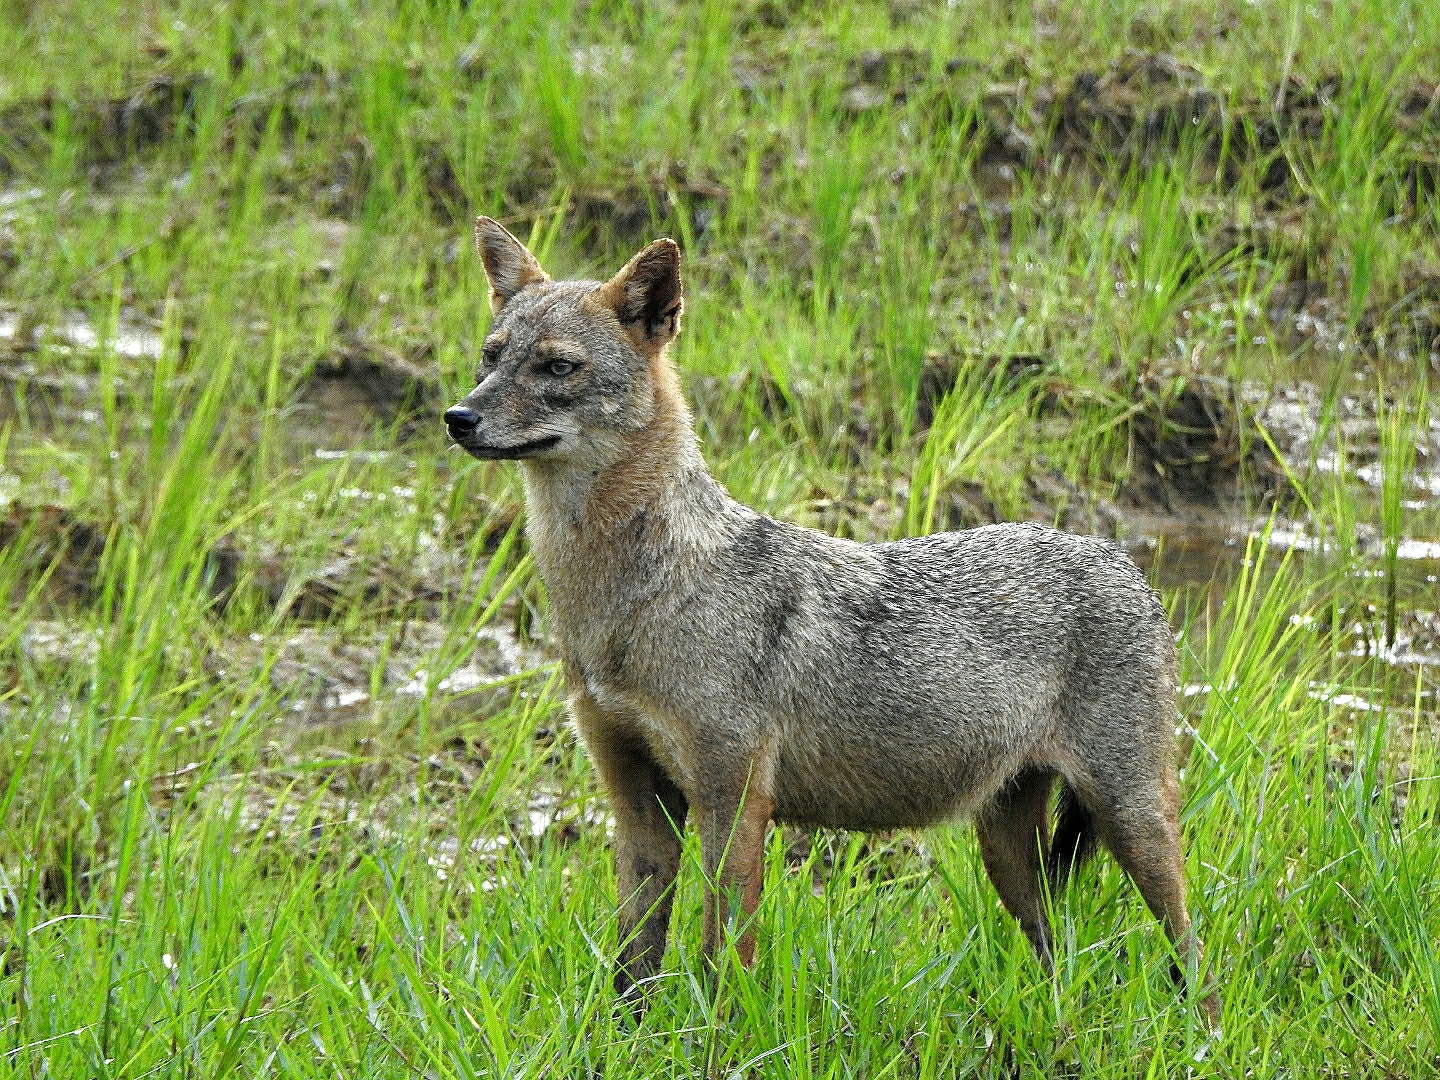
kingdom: Animalia
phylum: Chordata
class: Mammalia
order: Carnivora
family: Canidae
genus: Canis
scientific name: Canis aureus
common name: Golden jackal
